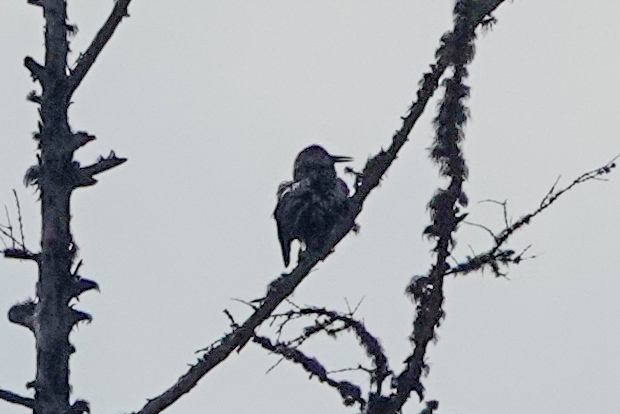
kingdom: Animalia
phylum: Chordata
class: Aves
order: Passeriformes
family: Corvidae
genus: Nucifraga
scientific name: Nucifraga caryocatactes
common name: Spotted nutcracker
